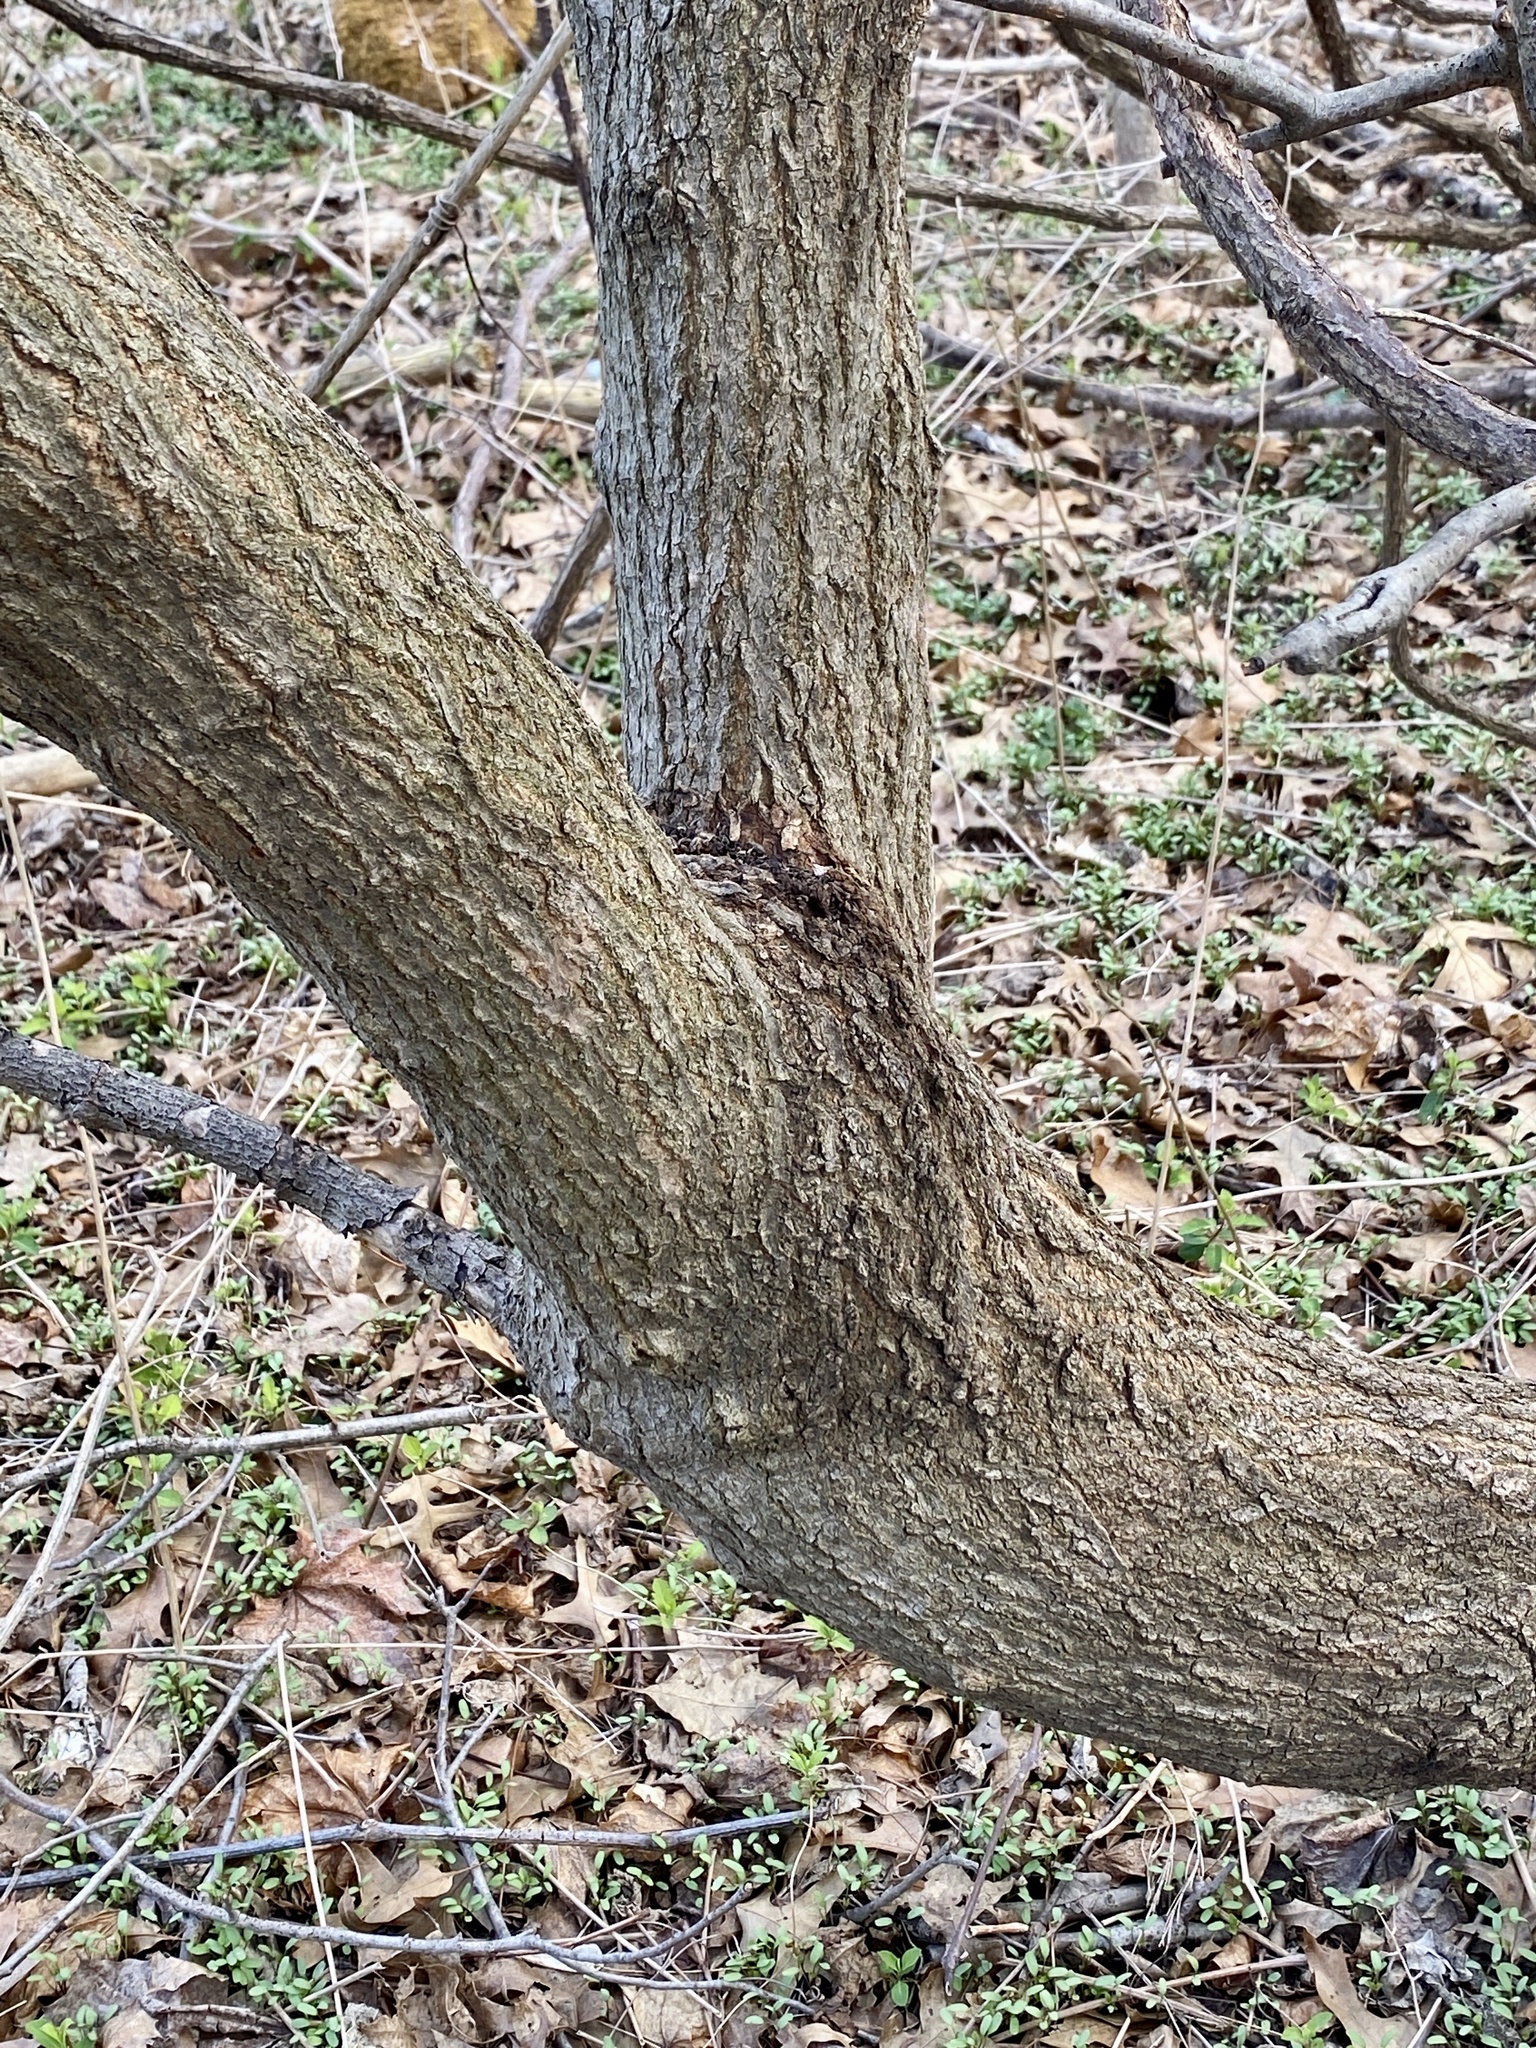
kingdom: Plantae
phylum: Tracheophyta
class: Magnoliopsida
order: Sapindales
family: Sapindaceae
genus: Acer
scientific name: Acer negundo
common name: Ashleaf maple
